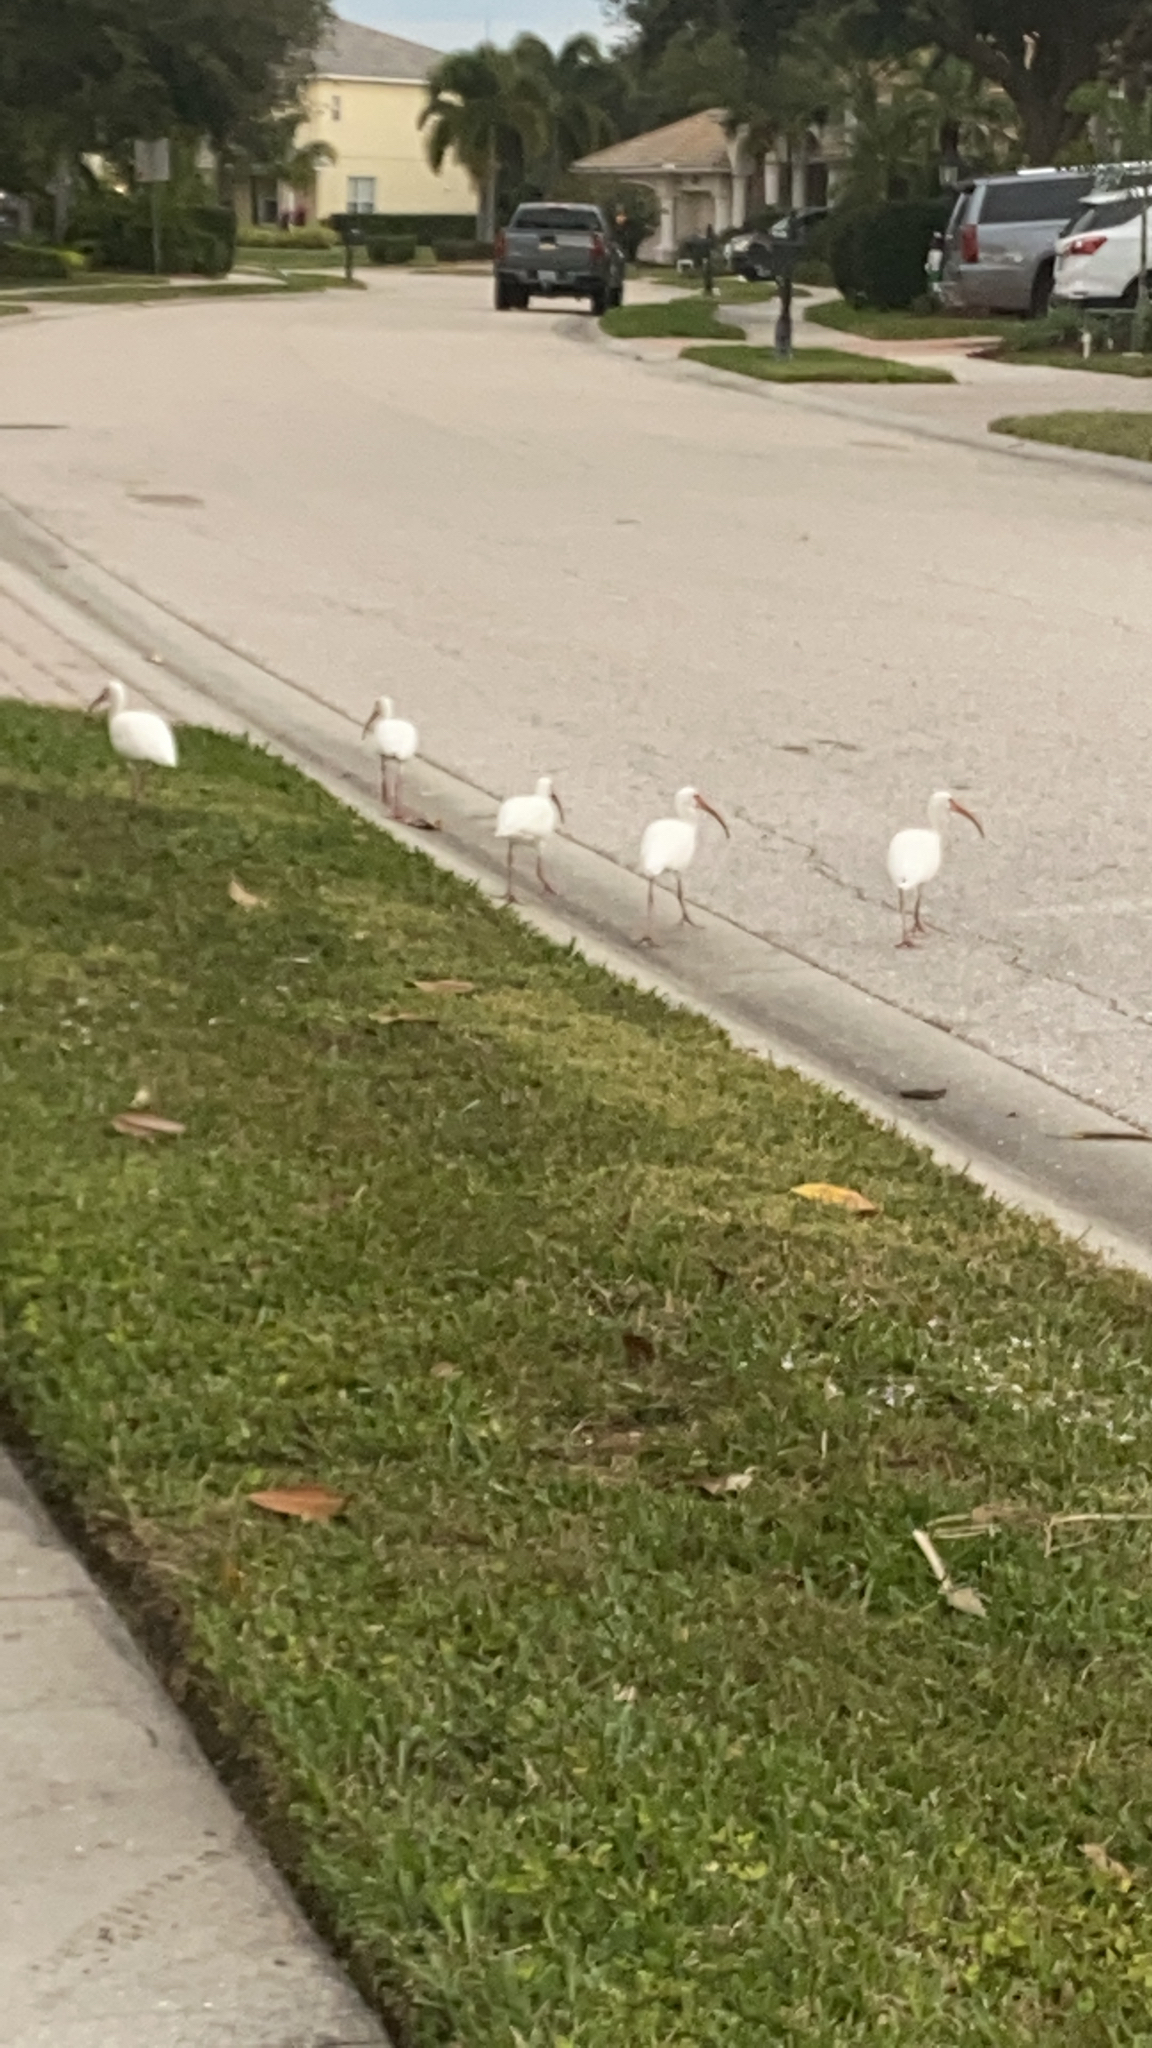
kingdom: Animalia
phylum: Chordata
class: Aves
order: Pelecaniformes
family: Threskiornithidae
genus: Eudocimus
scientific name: Eudocimus albus
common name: White ibis
